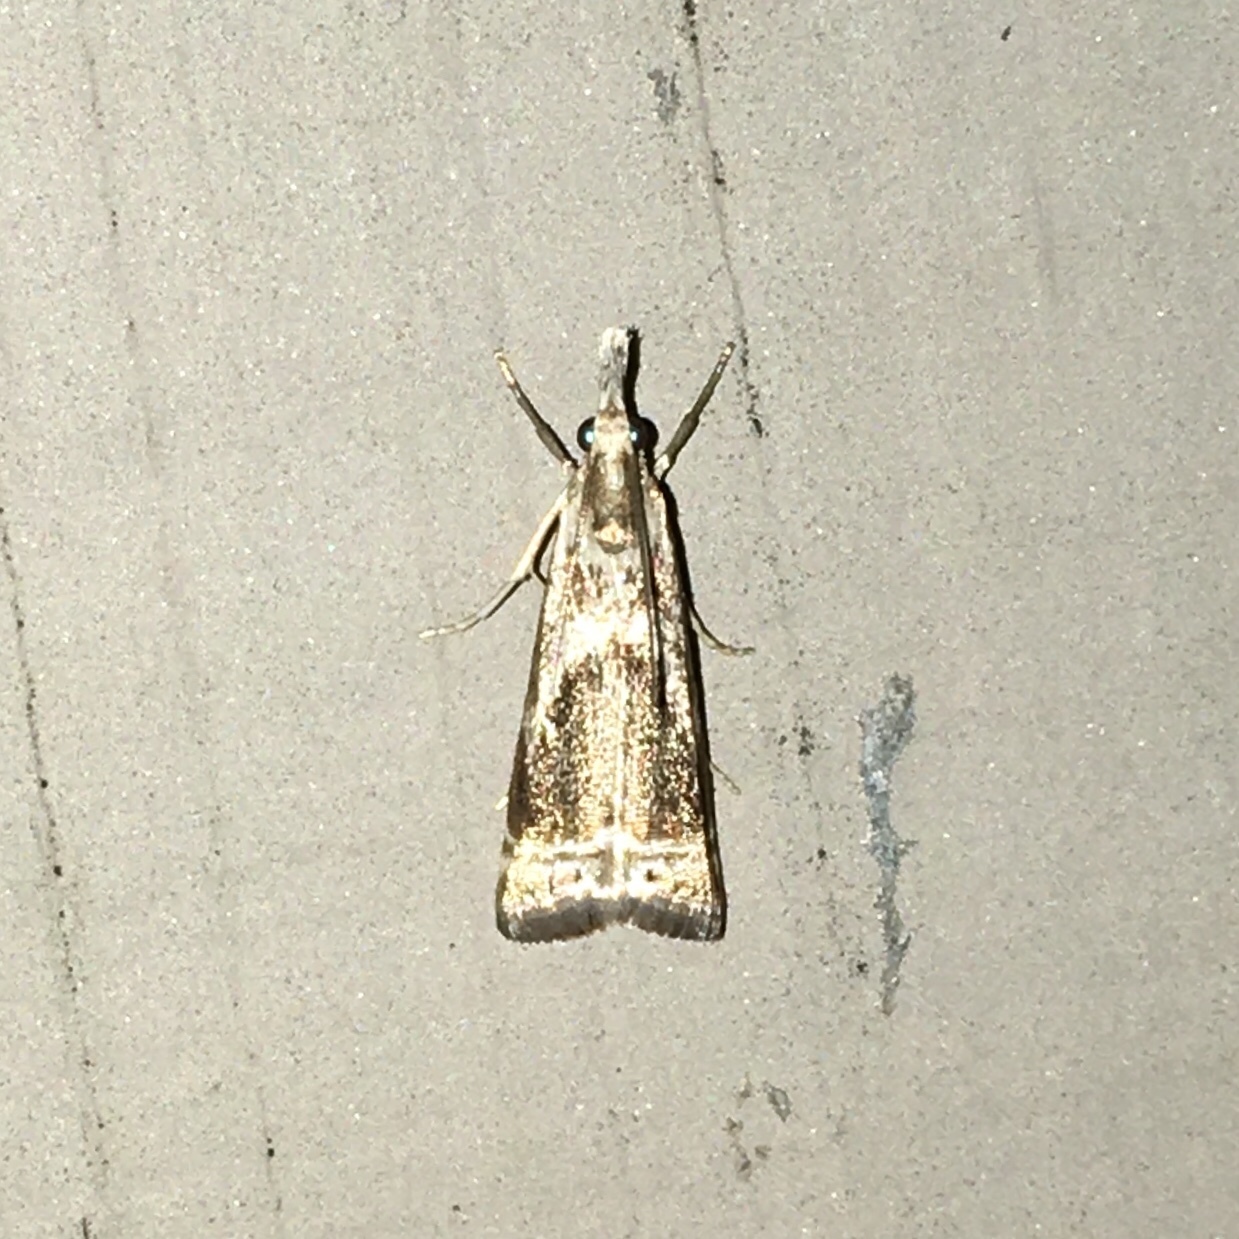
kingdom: Animalia
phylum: Arthropoda
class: Insecta
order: Lepidoptera
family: Crambidae
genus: Microcrambus
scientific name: Microcrambus elegans
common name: Elegant grass-veneer
